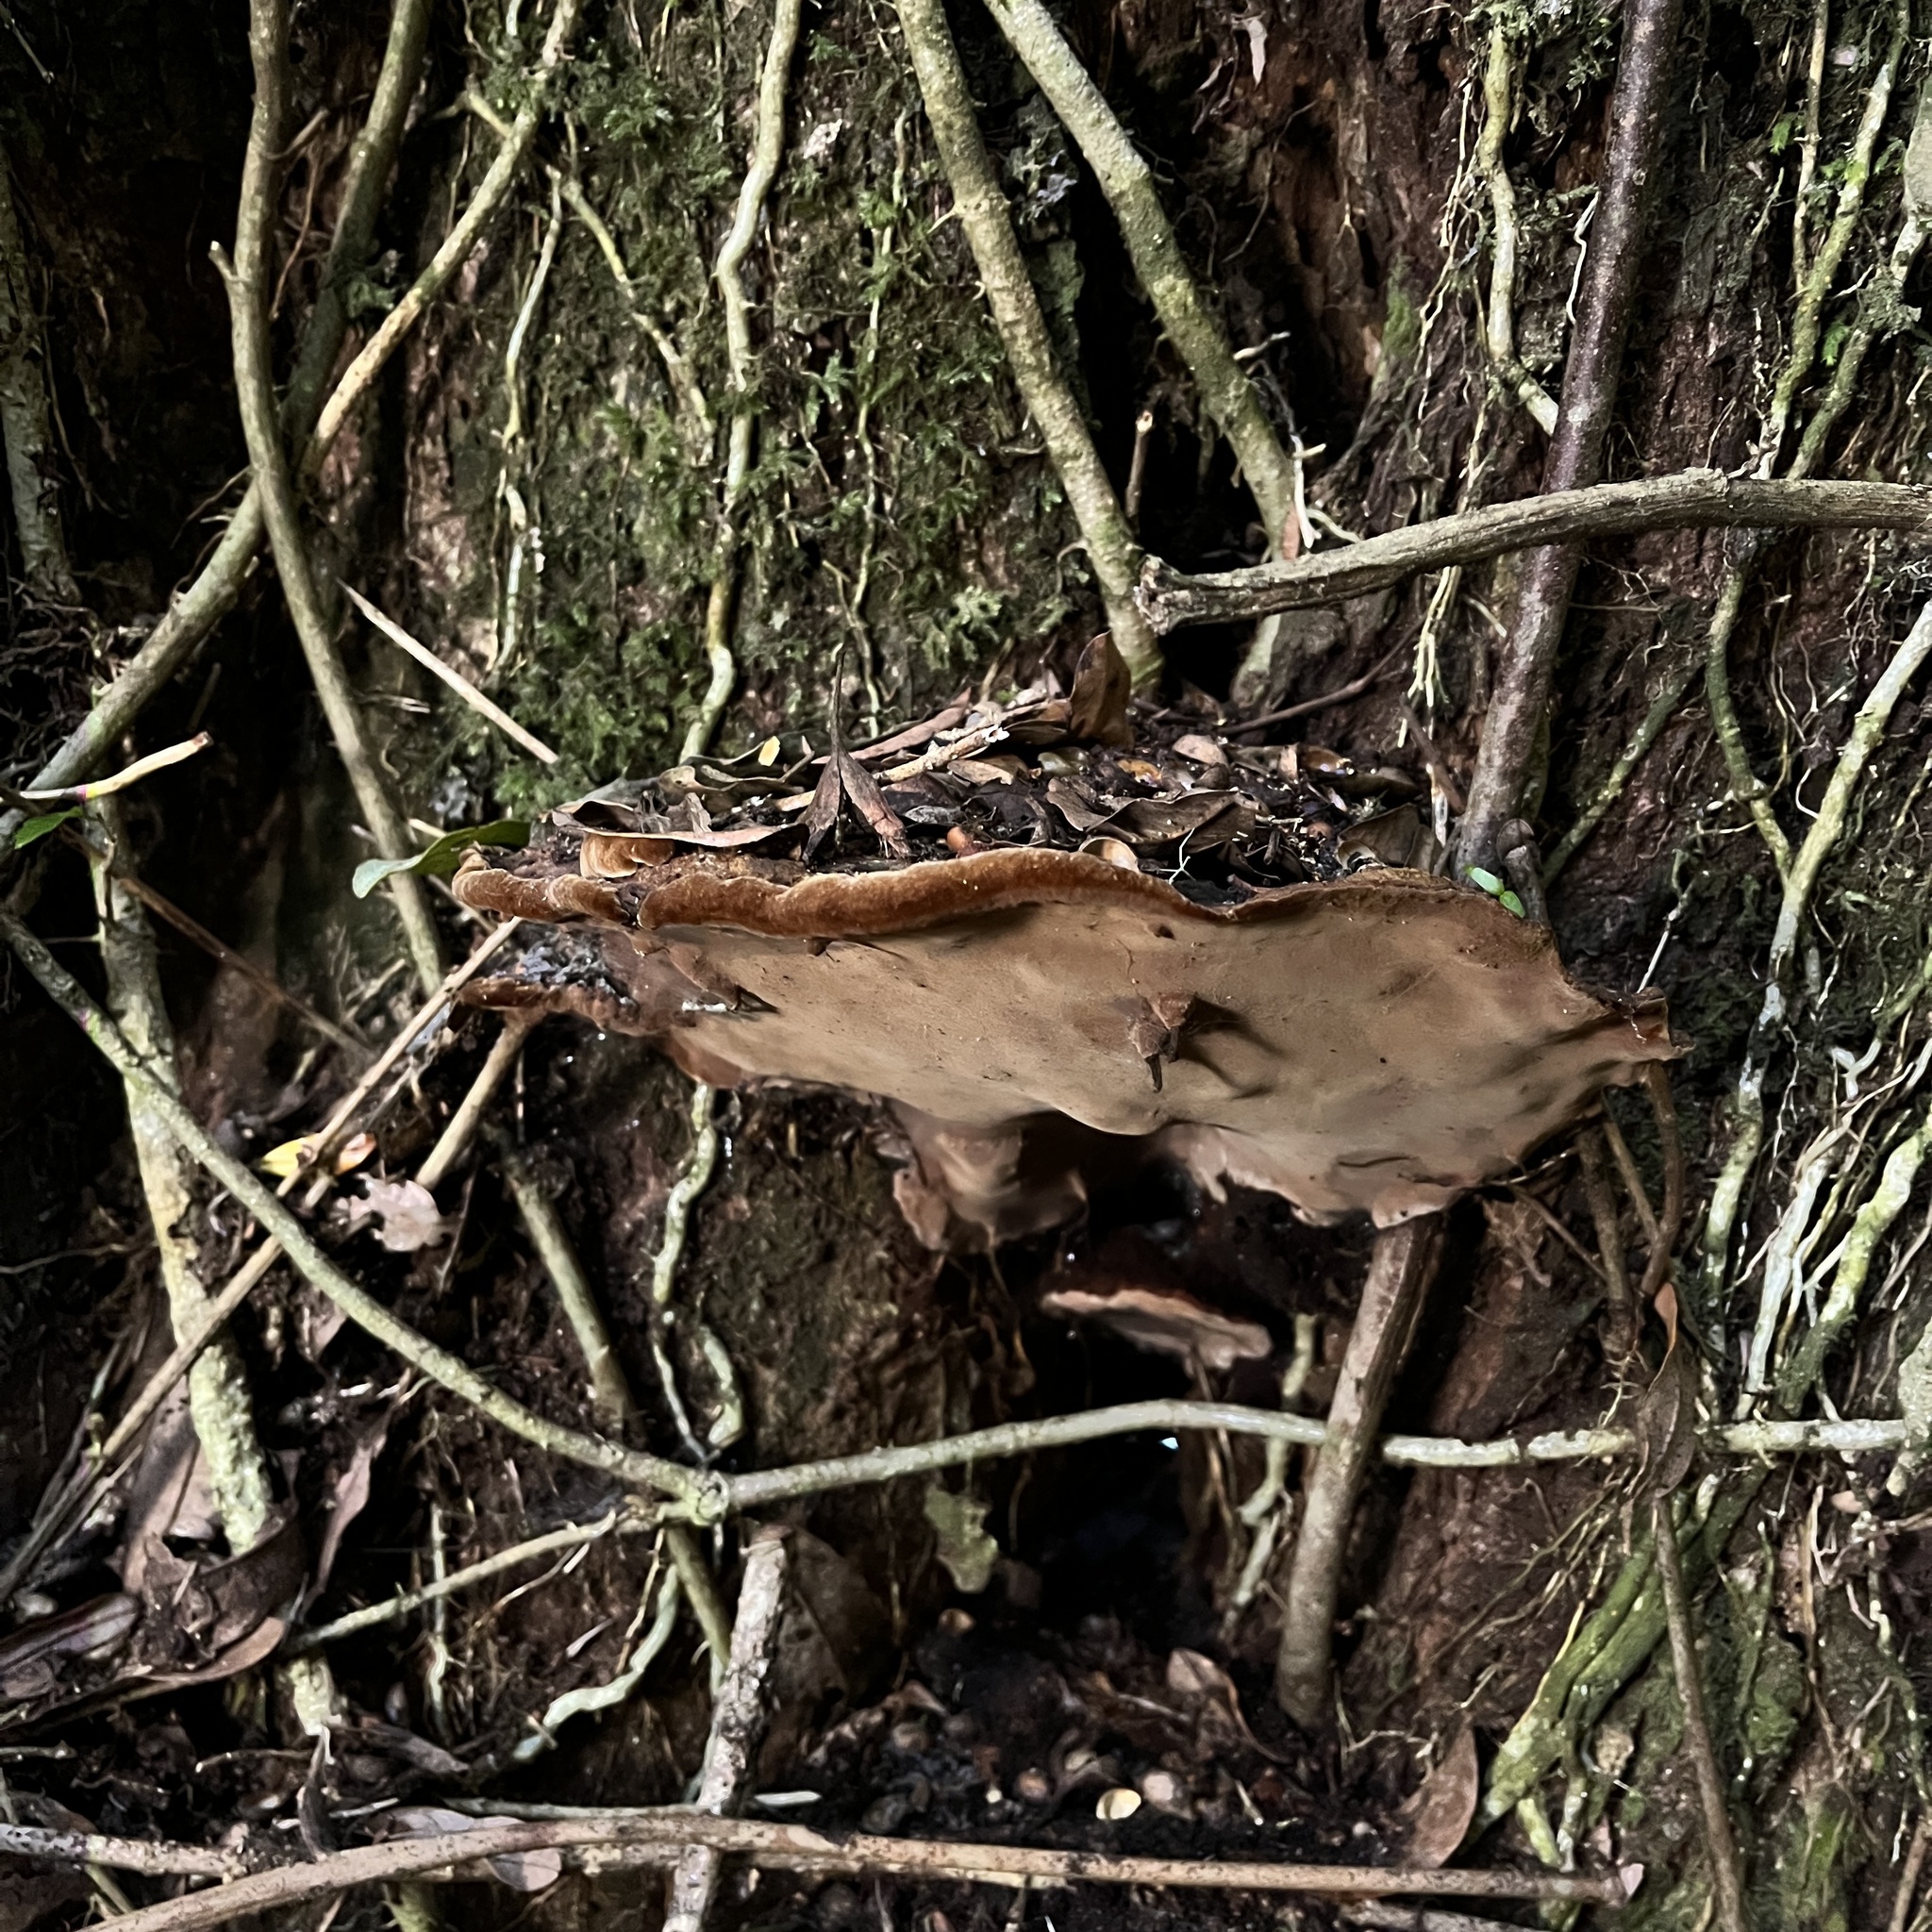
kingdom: Fungi
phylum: Basidiomycota
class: Agaricomycetes
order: Hymenochaetales
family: Hymenochaetaceae
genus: Fuscoporia
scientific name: Fuscoporia senex
